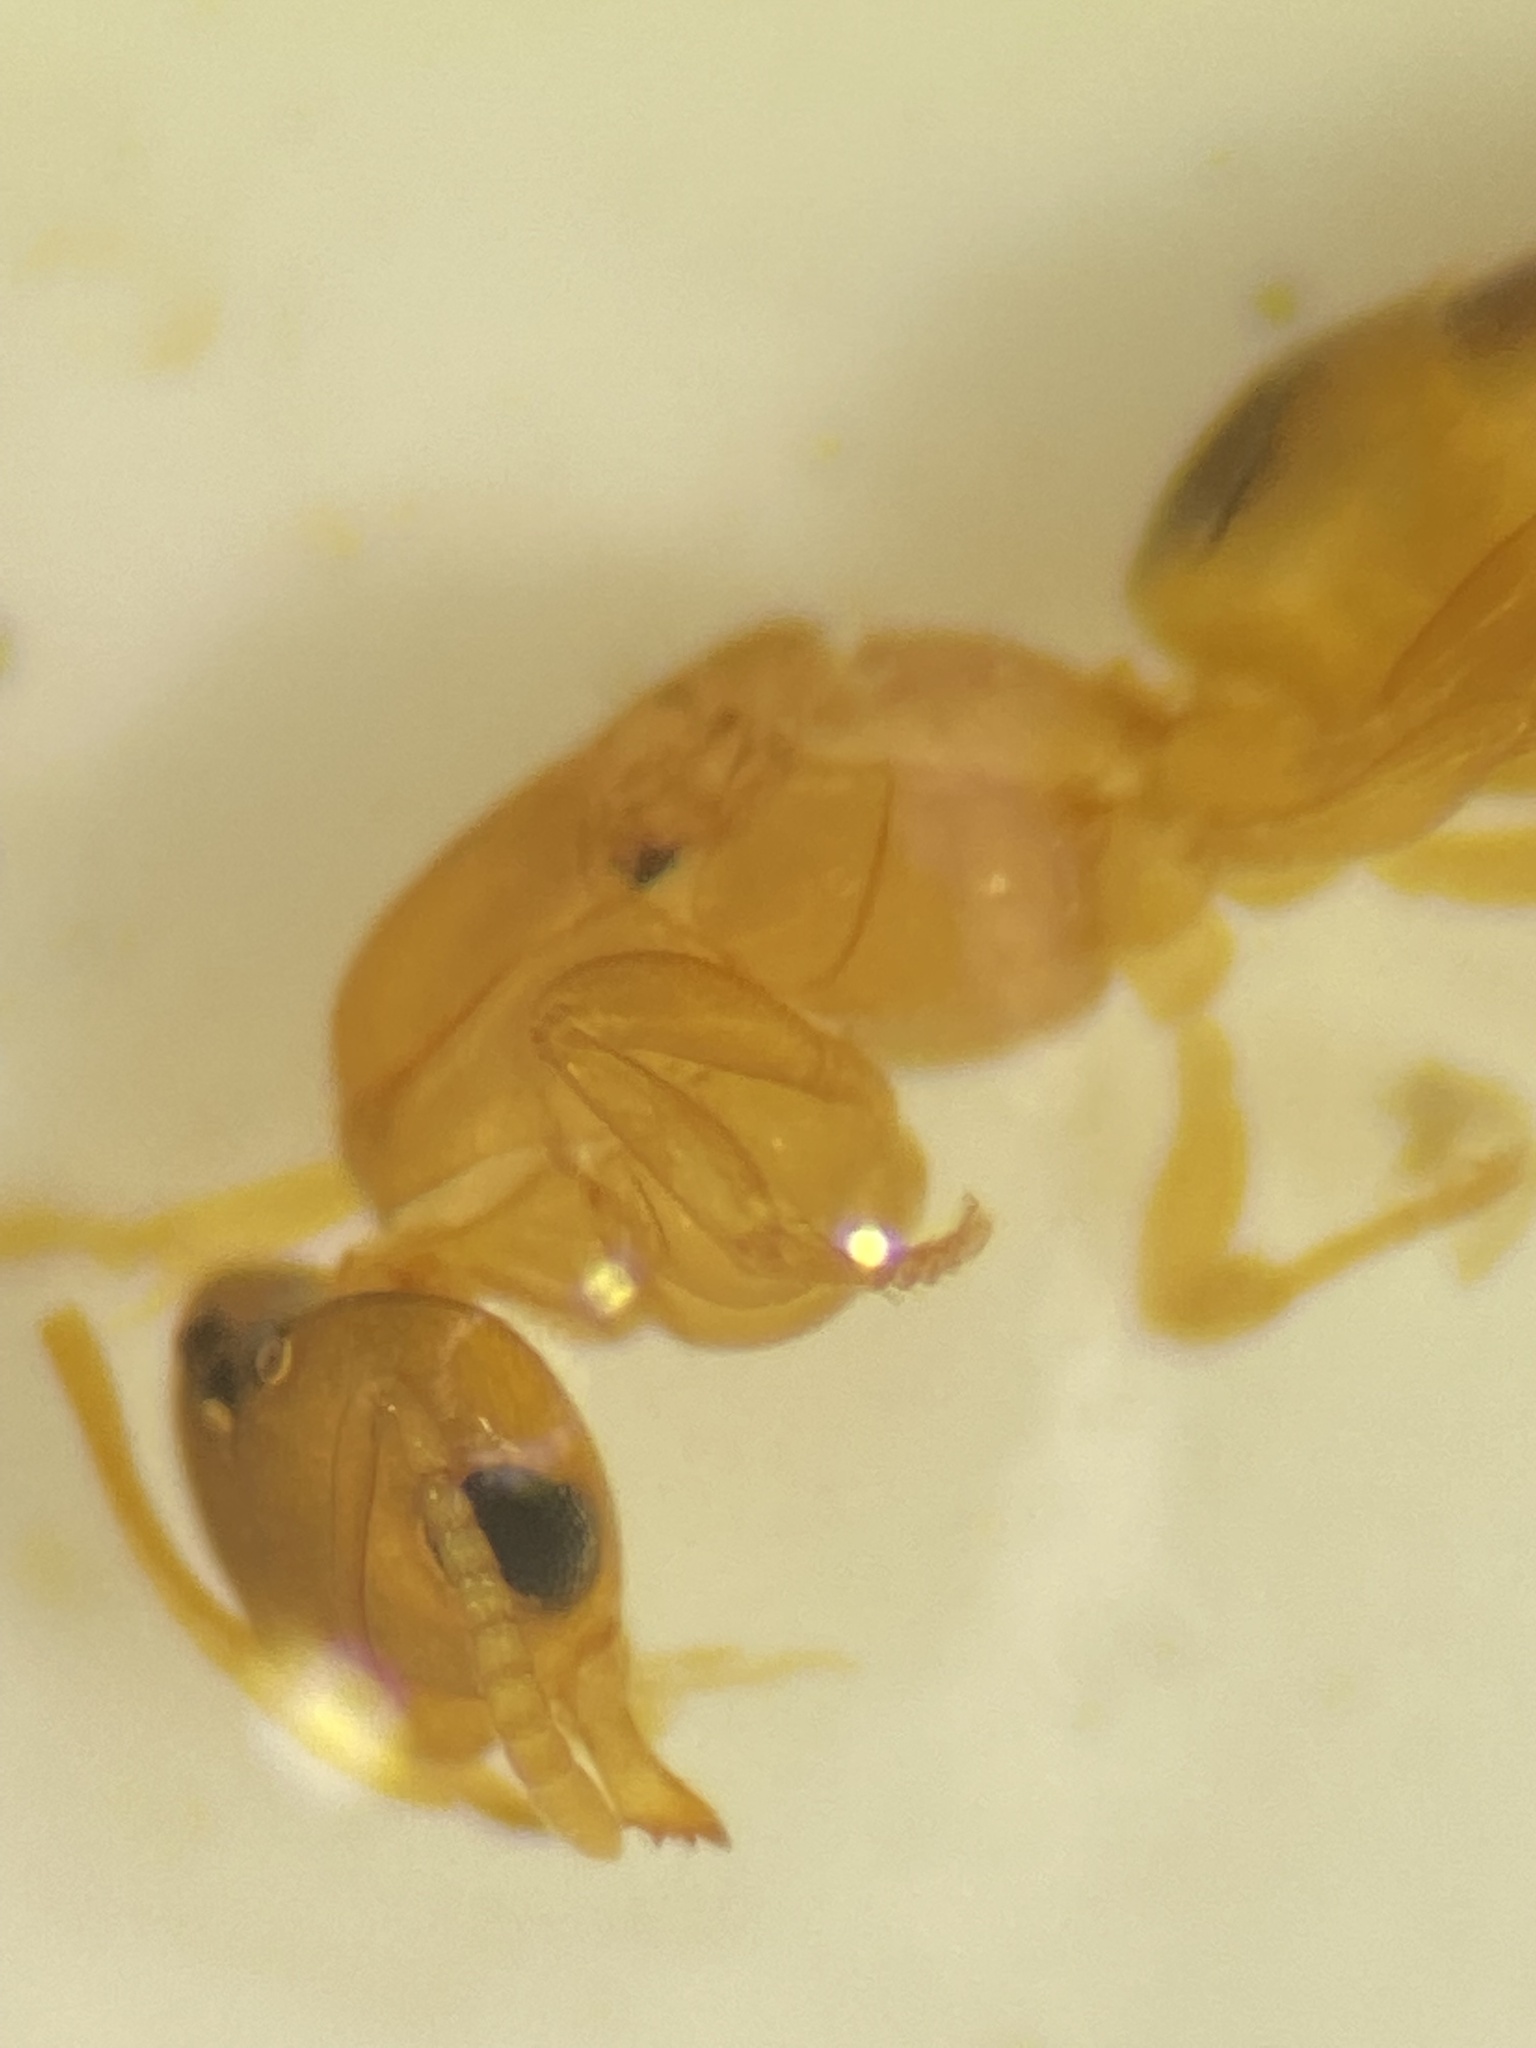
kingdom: Animalia
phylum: Arthropoda
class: Insecta
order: Hymenoptera
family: Formicidae
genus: Brachymyrmex
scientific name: Brachymyrmex depilis
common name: Hairless rover ant
